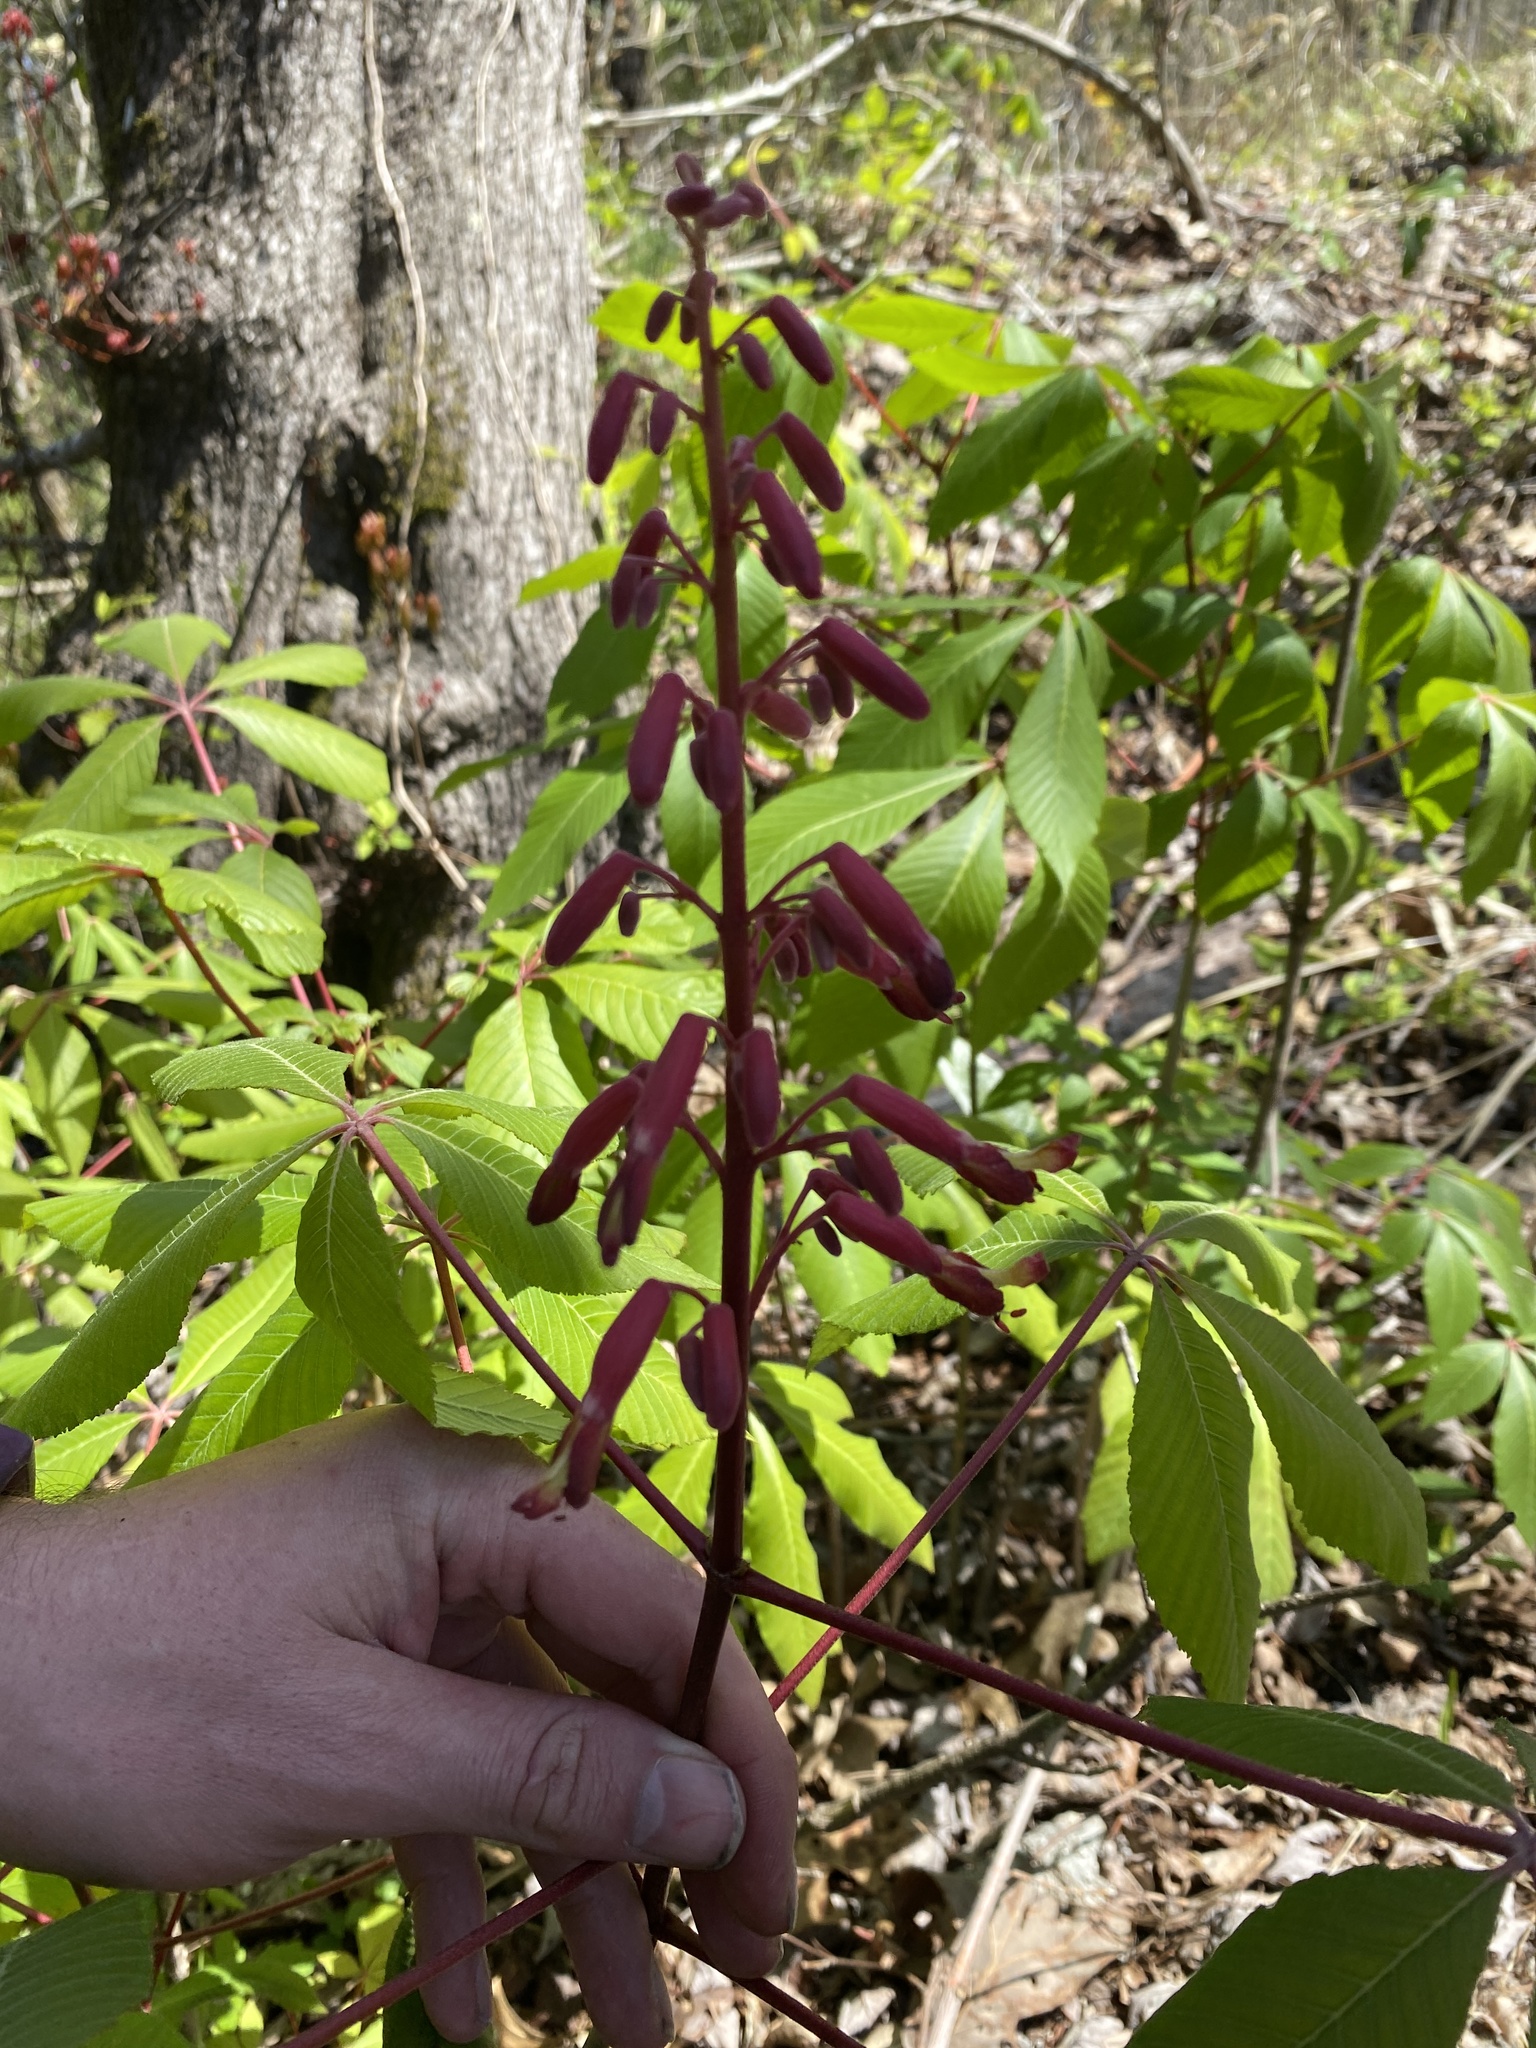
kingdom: Plantae
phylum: Tracheophyta
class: Magnoliopsida
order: Sapindales
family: Sapindaceae
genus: Aesculus
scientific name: Aesculus pavia
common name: Red buckeye
